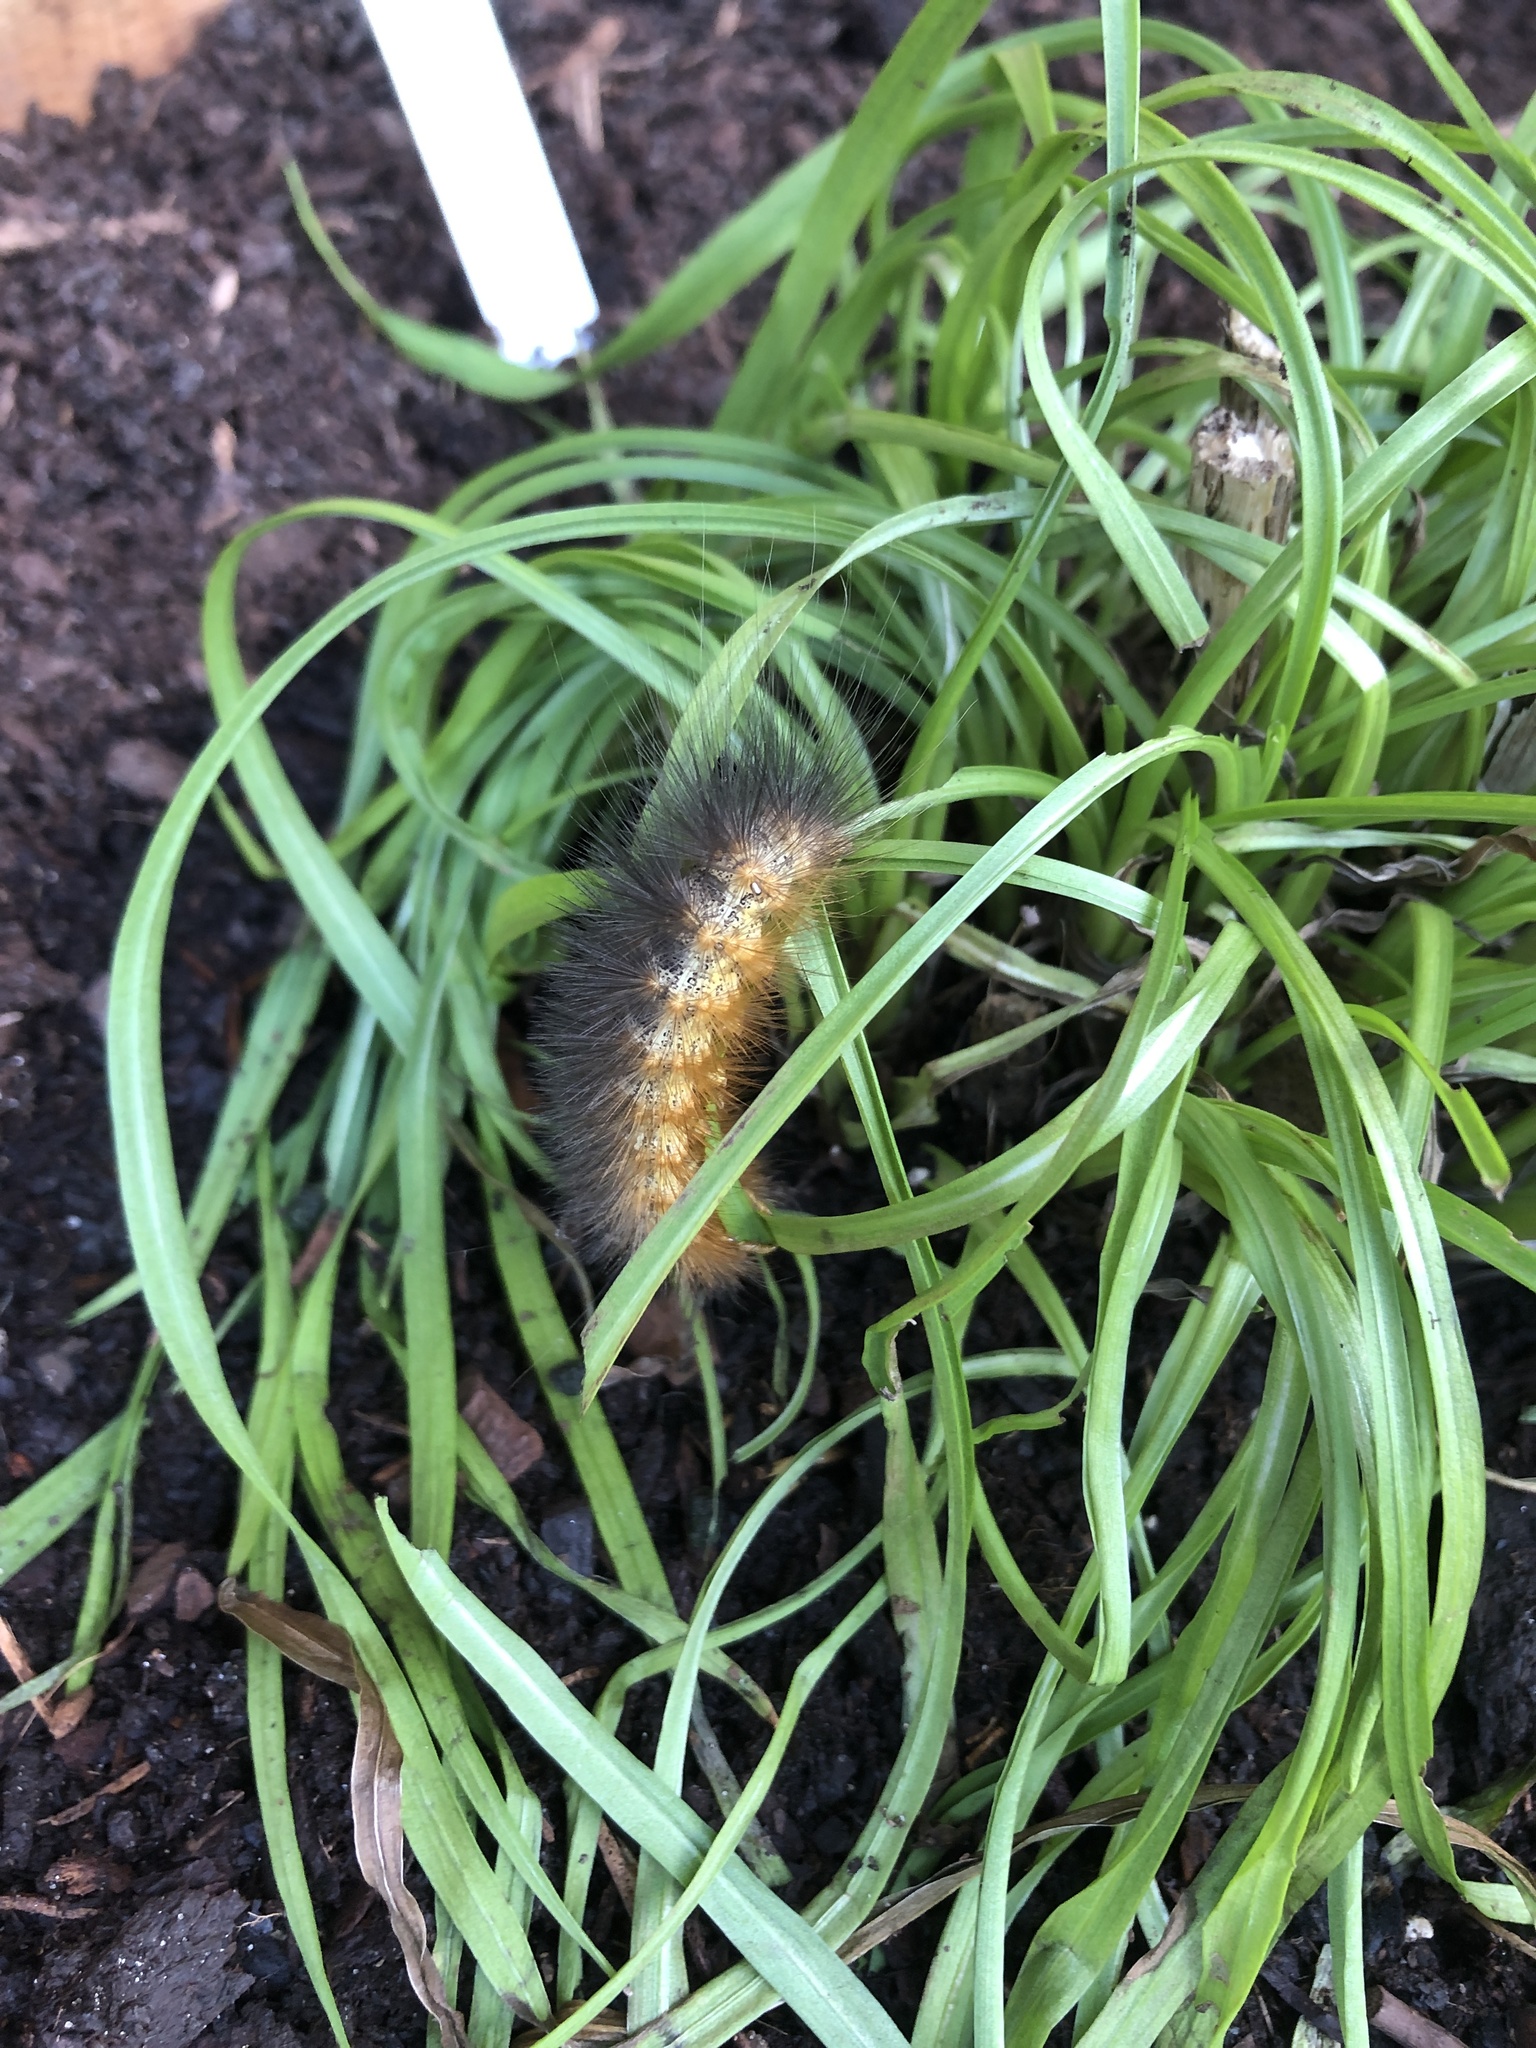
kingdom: Animalia
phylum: Arthropoda
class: Insecta
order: Lepidoptera
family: Erebidae
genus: Estigmene
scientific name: Estigmene acrea
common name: Salt marsh moth
